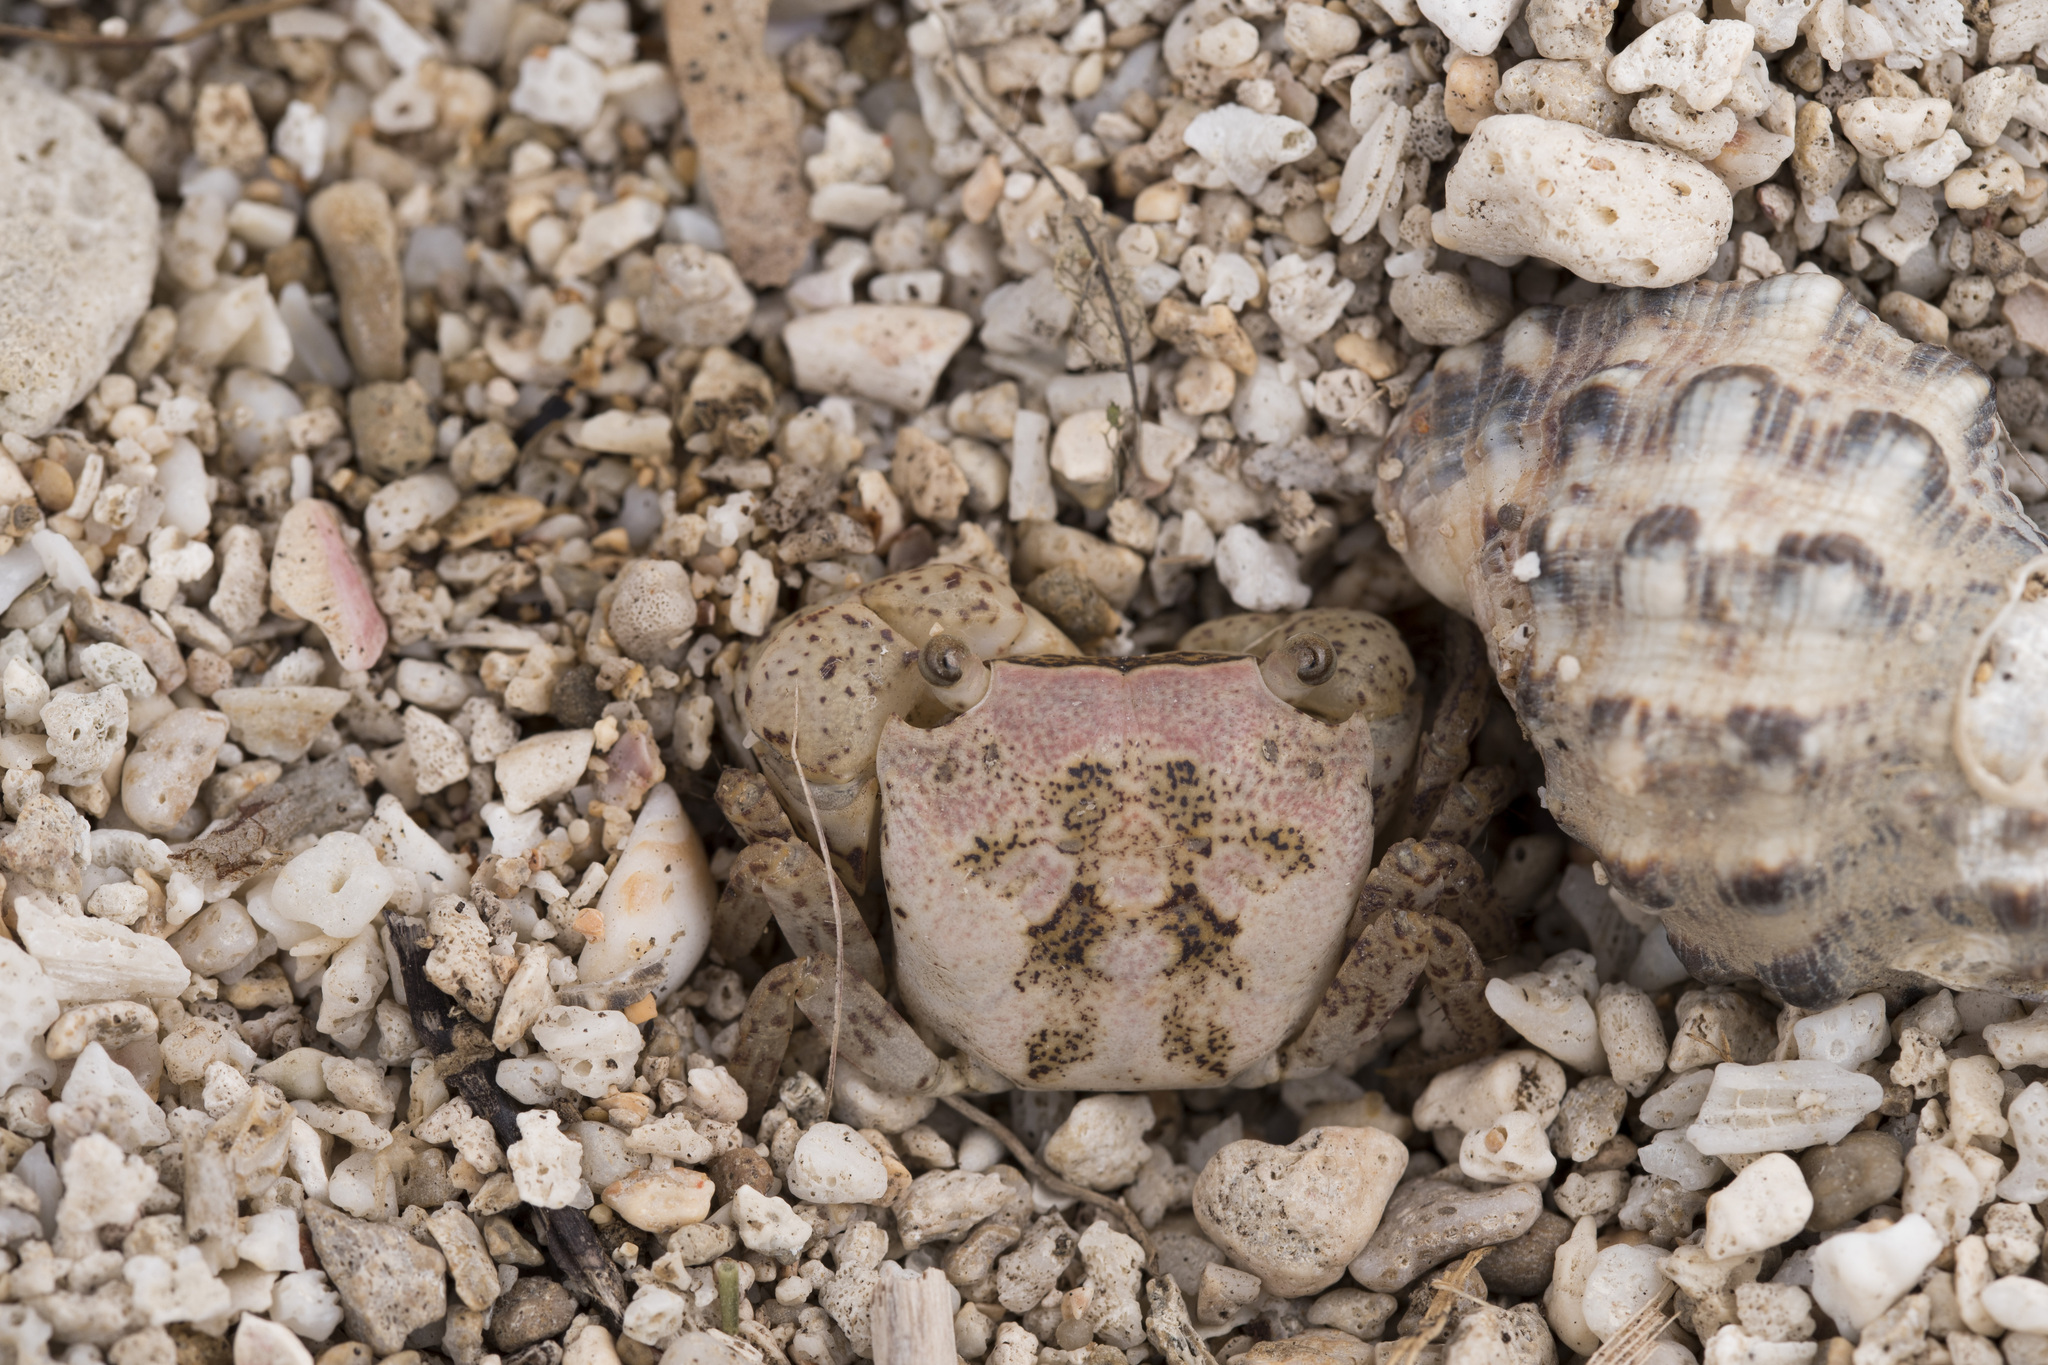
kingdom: Animalia
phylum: Arthropoda
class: Malacostraca
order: Decapoda
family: Sesarmidae
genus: Metasesarma
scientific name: Metasesarma obesum
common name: Marble crab
